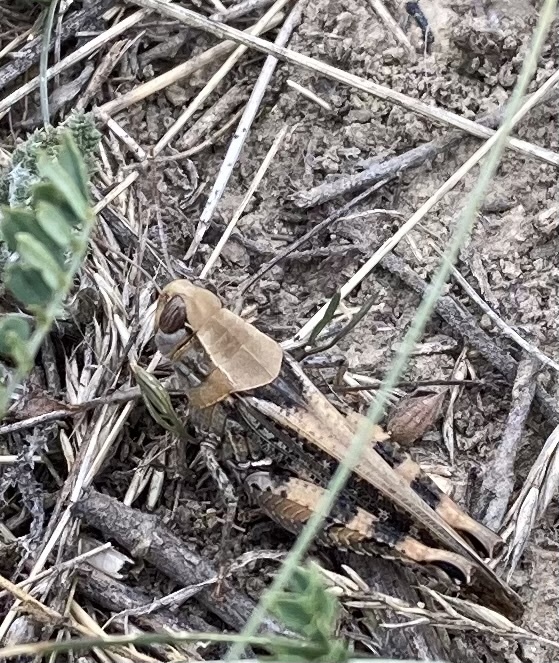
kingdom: Animalia
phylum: Arthropoda
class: Insecta
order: Orthoptera
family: Acrididae
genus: Calliptamus
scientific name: Calliptamus italicus
